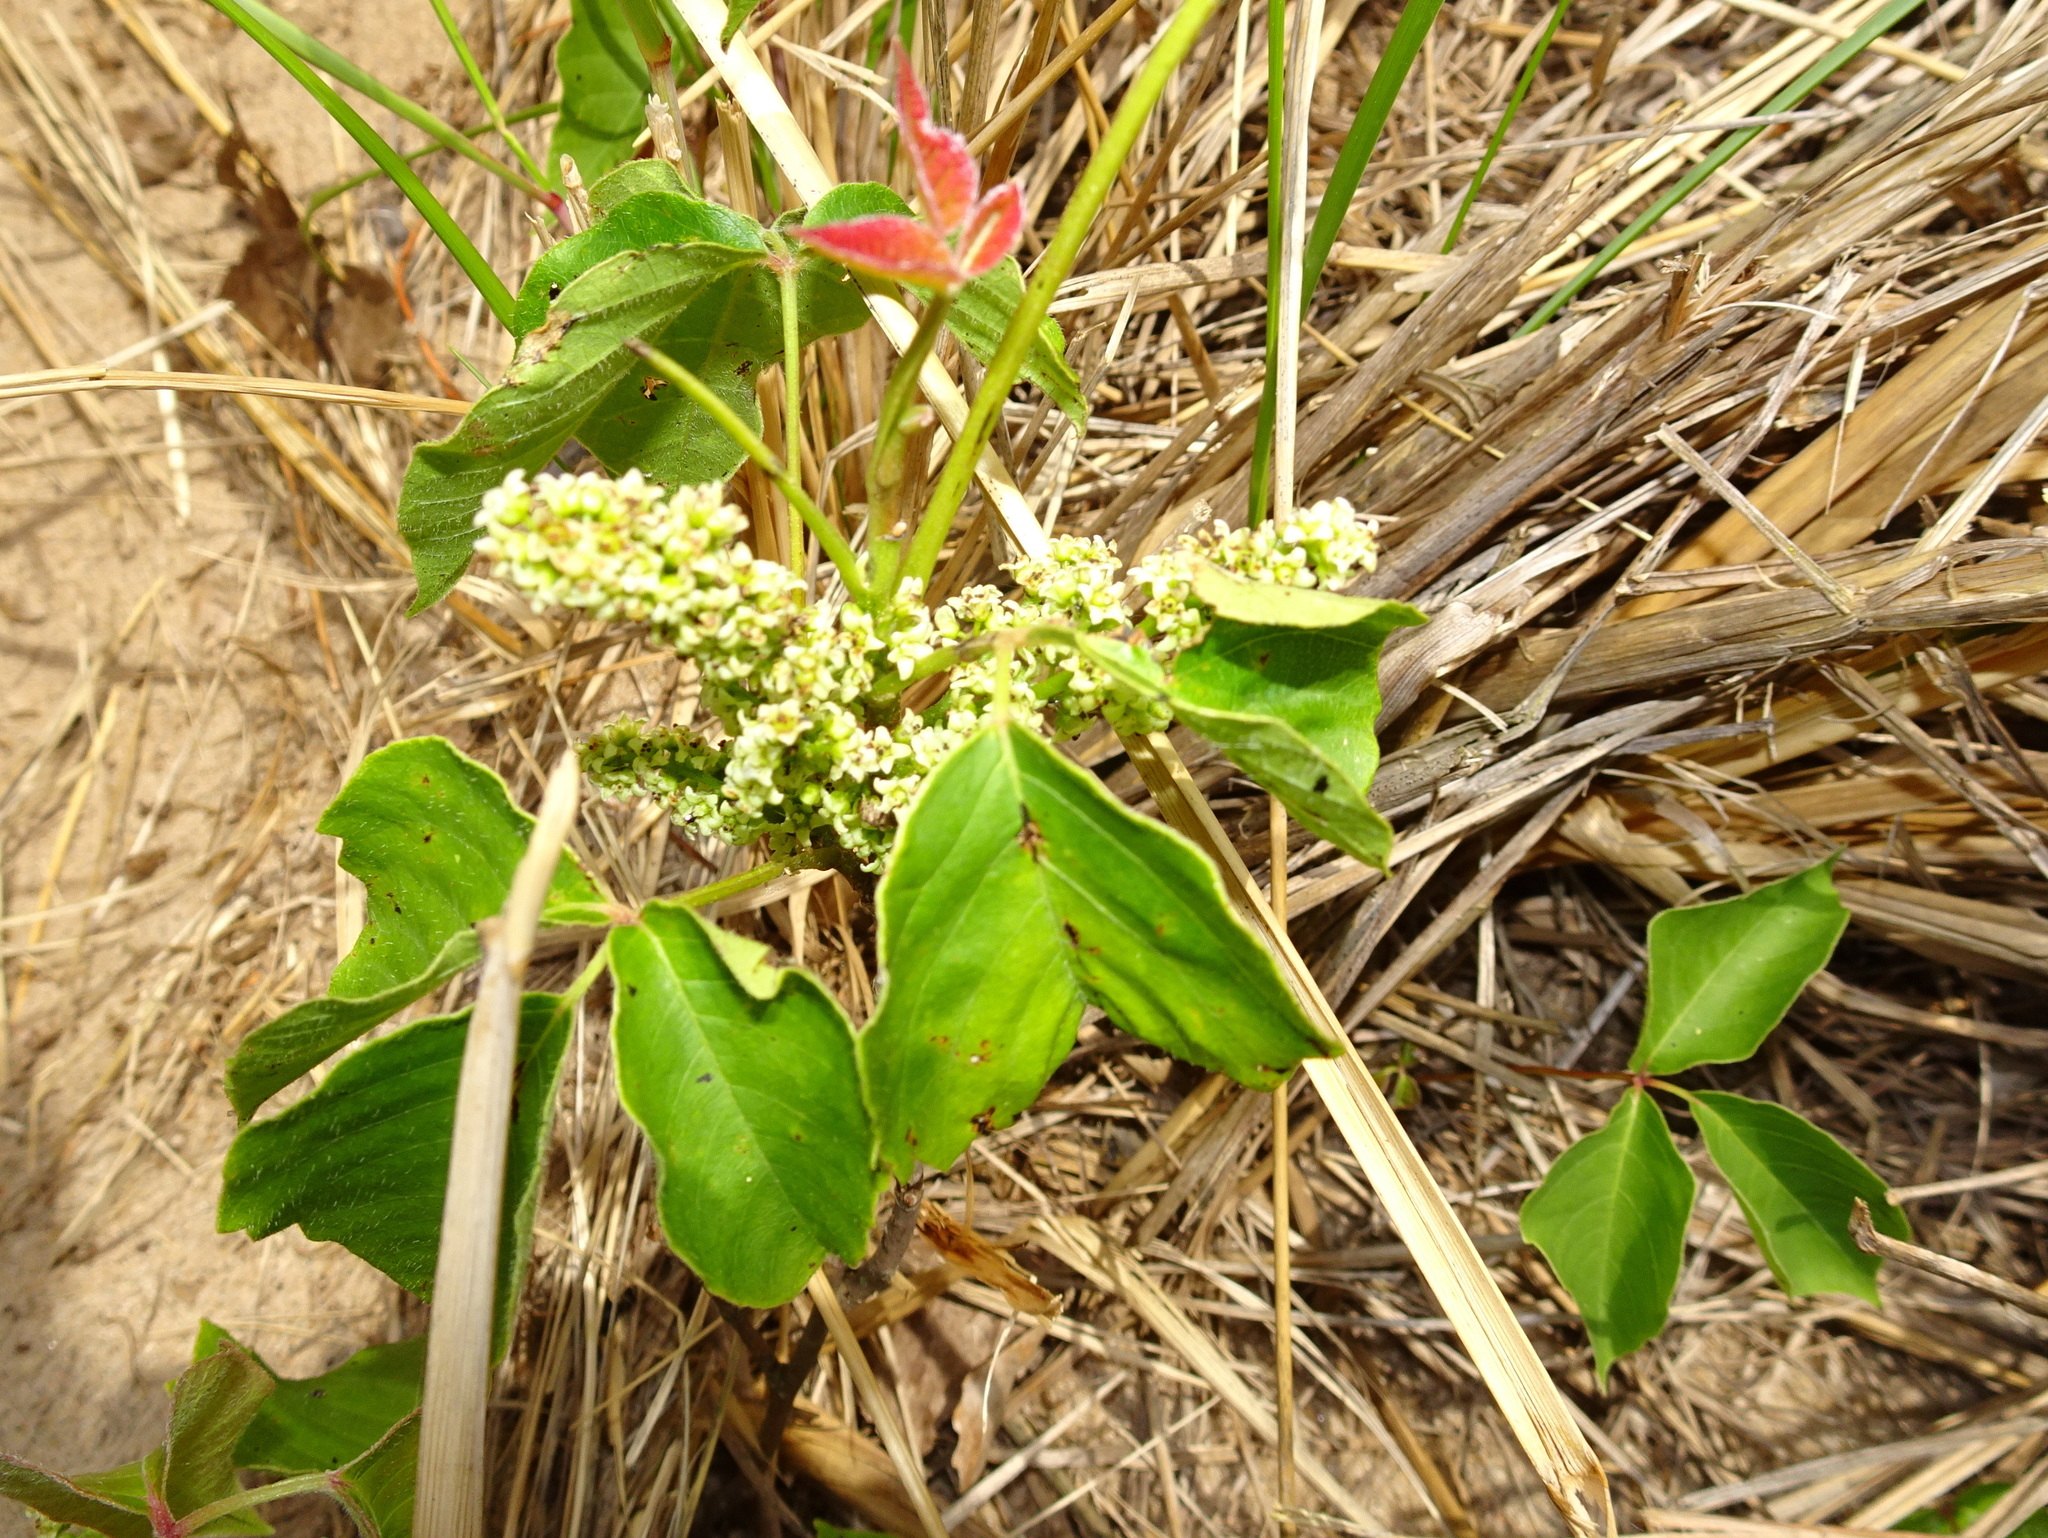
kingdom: Plantae
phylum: Tracheophyta
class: Magnoliopsida
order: Sapindales
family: Anacardiaceae
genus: Toxicodendron
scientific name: Toxicodendron rydbergii
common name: Rydberg's poison-ivy
